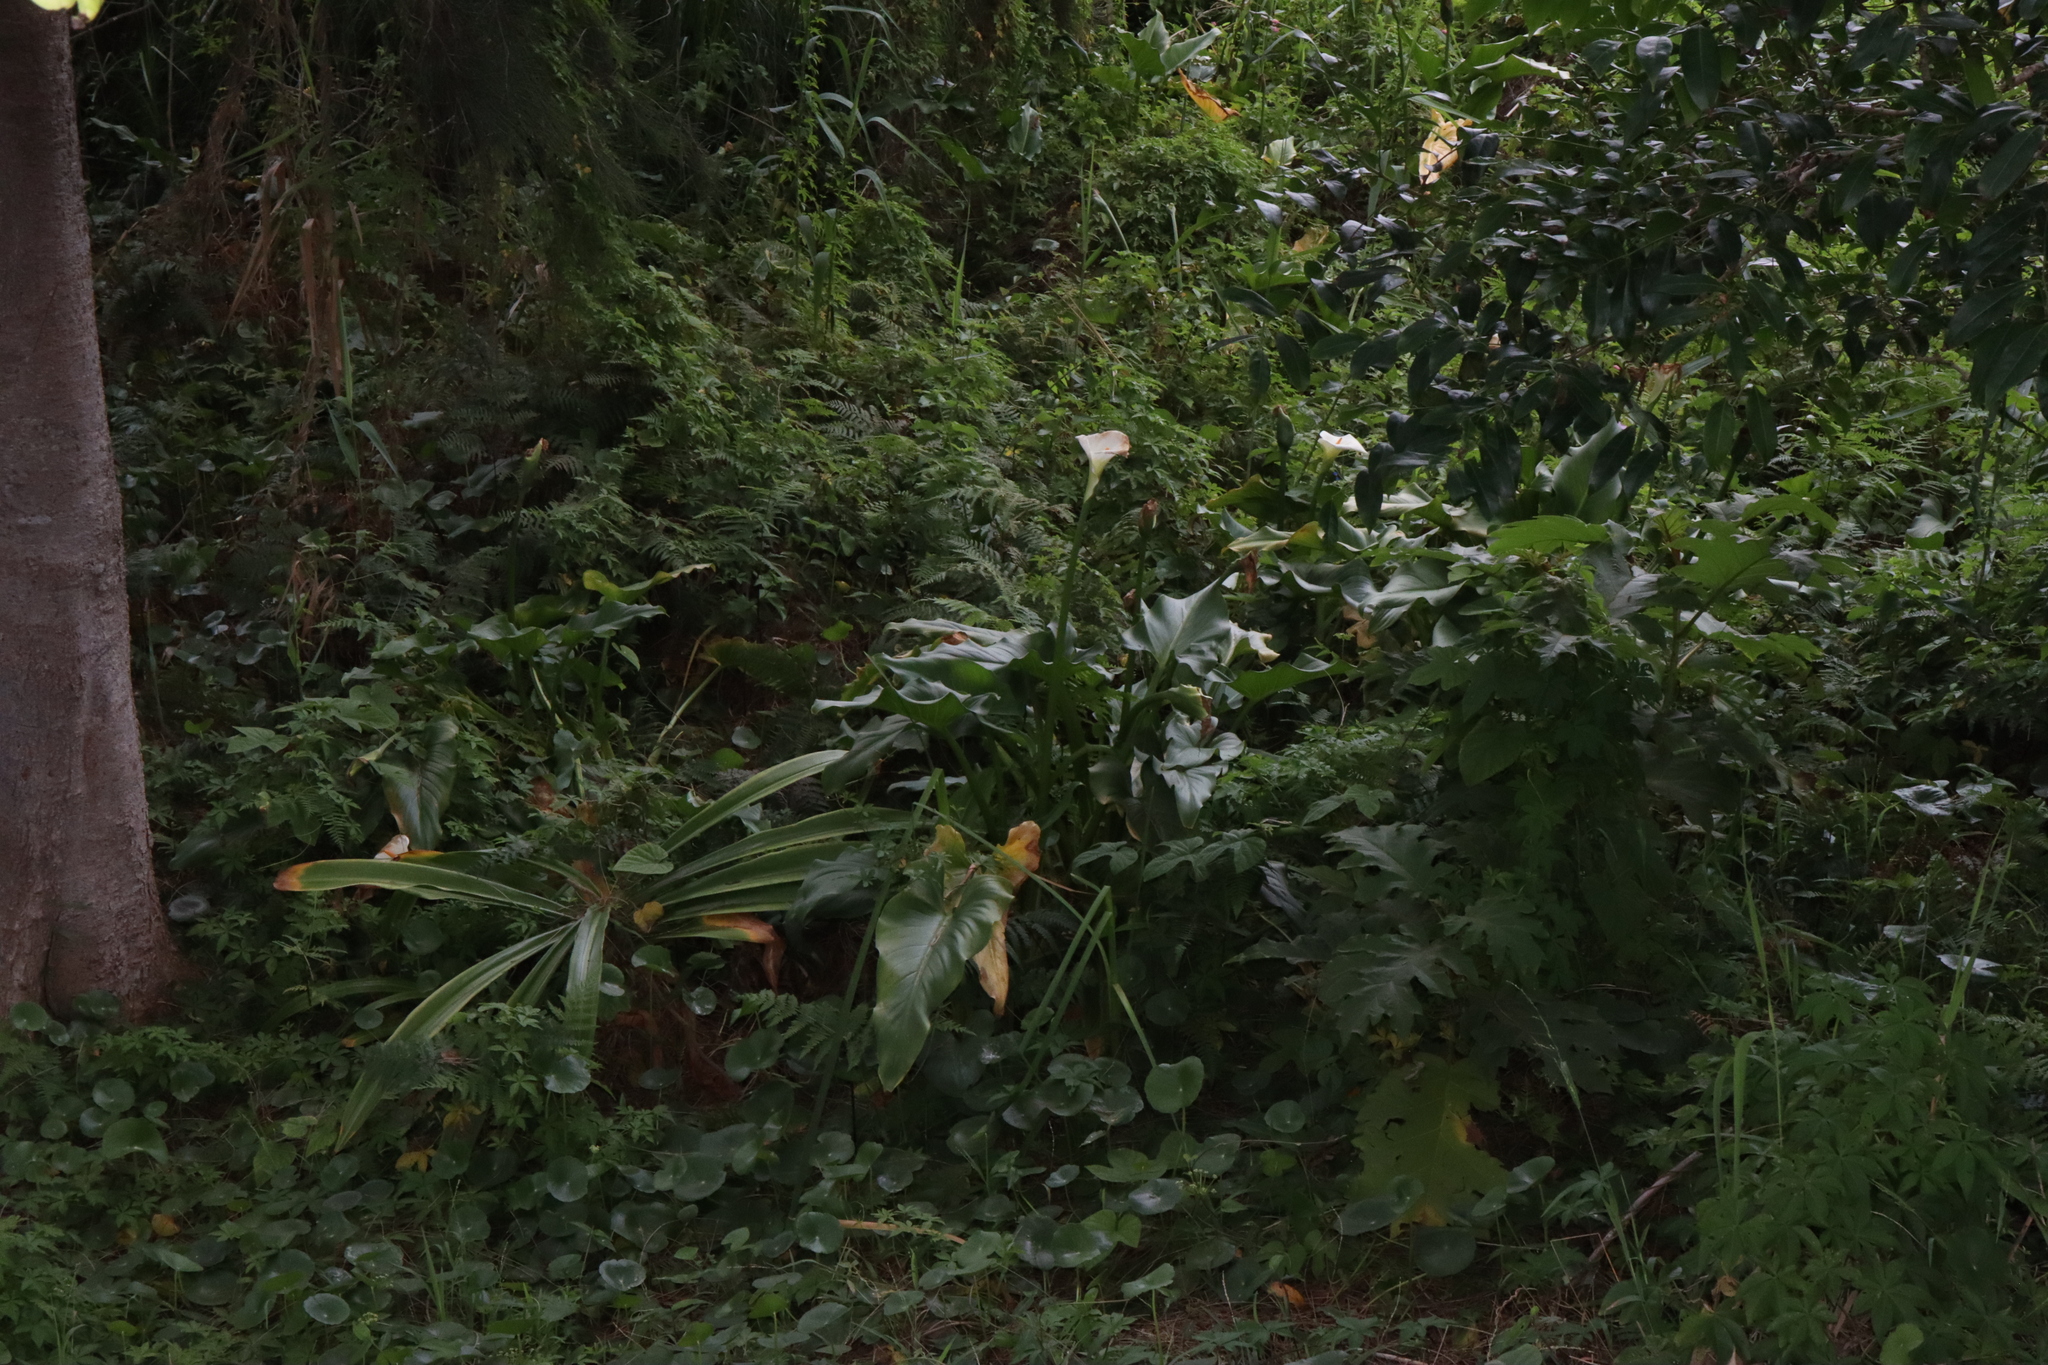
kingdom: Plantae
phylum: Tracheophyta
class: Liliopsida
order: Alismatales
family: Araceae
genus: Zantedeschia
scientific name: Zantedeschia aethiopica
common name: Altar-lily
